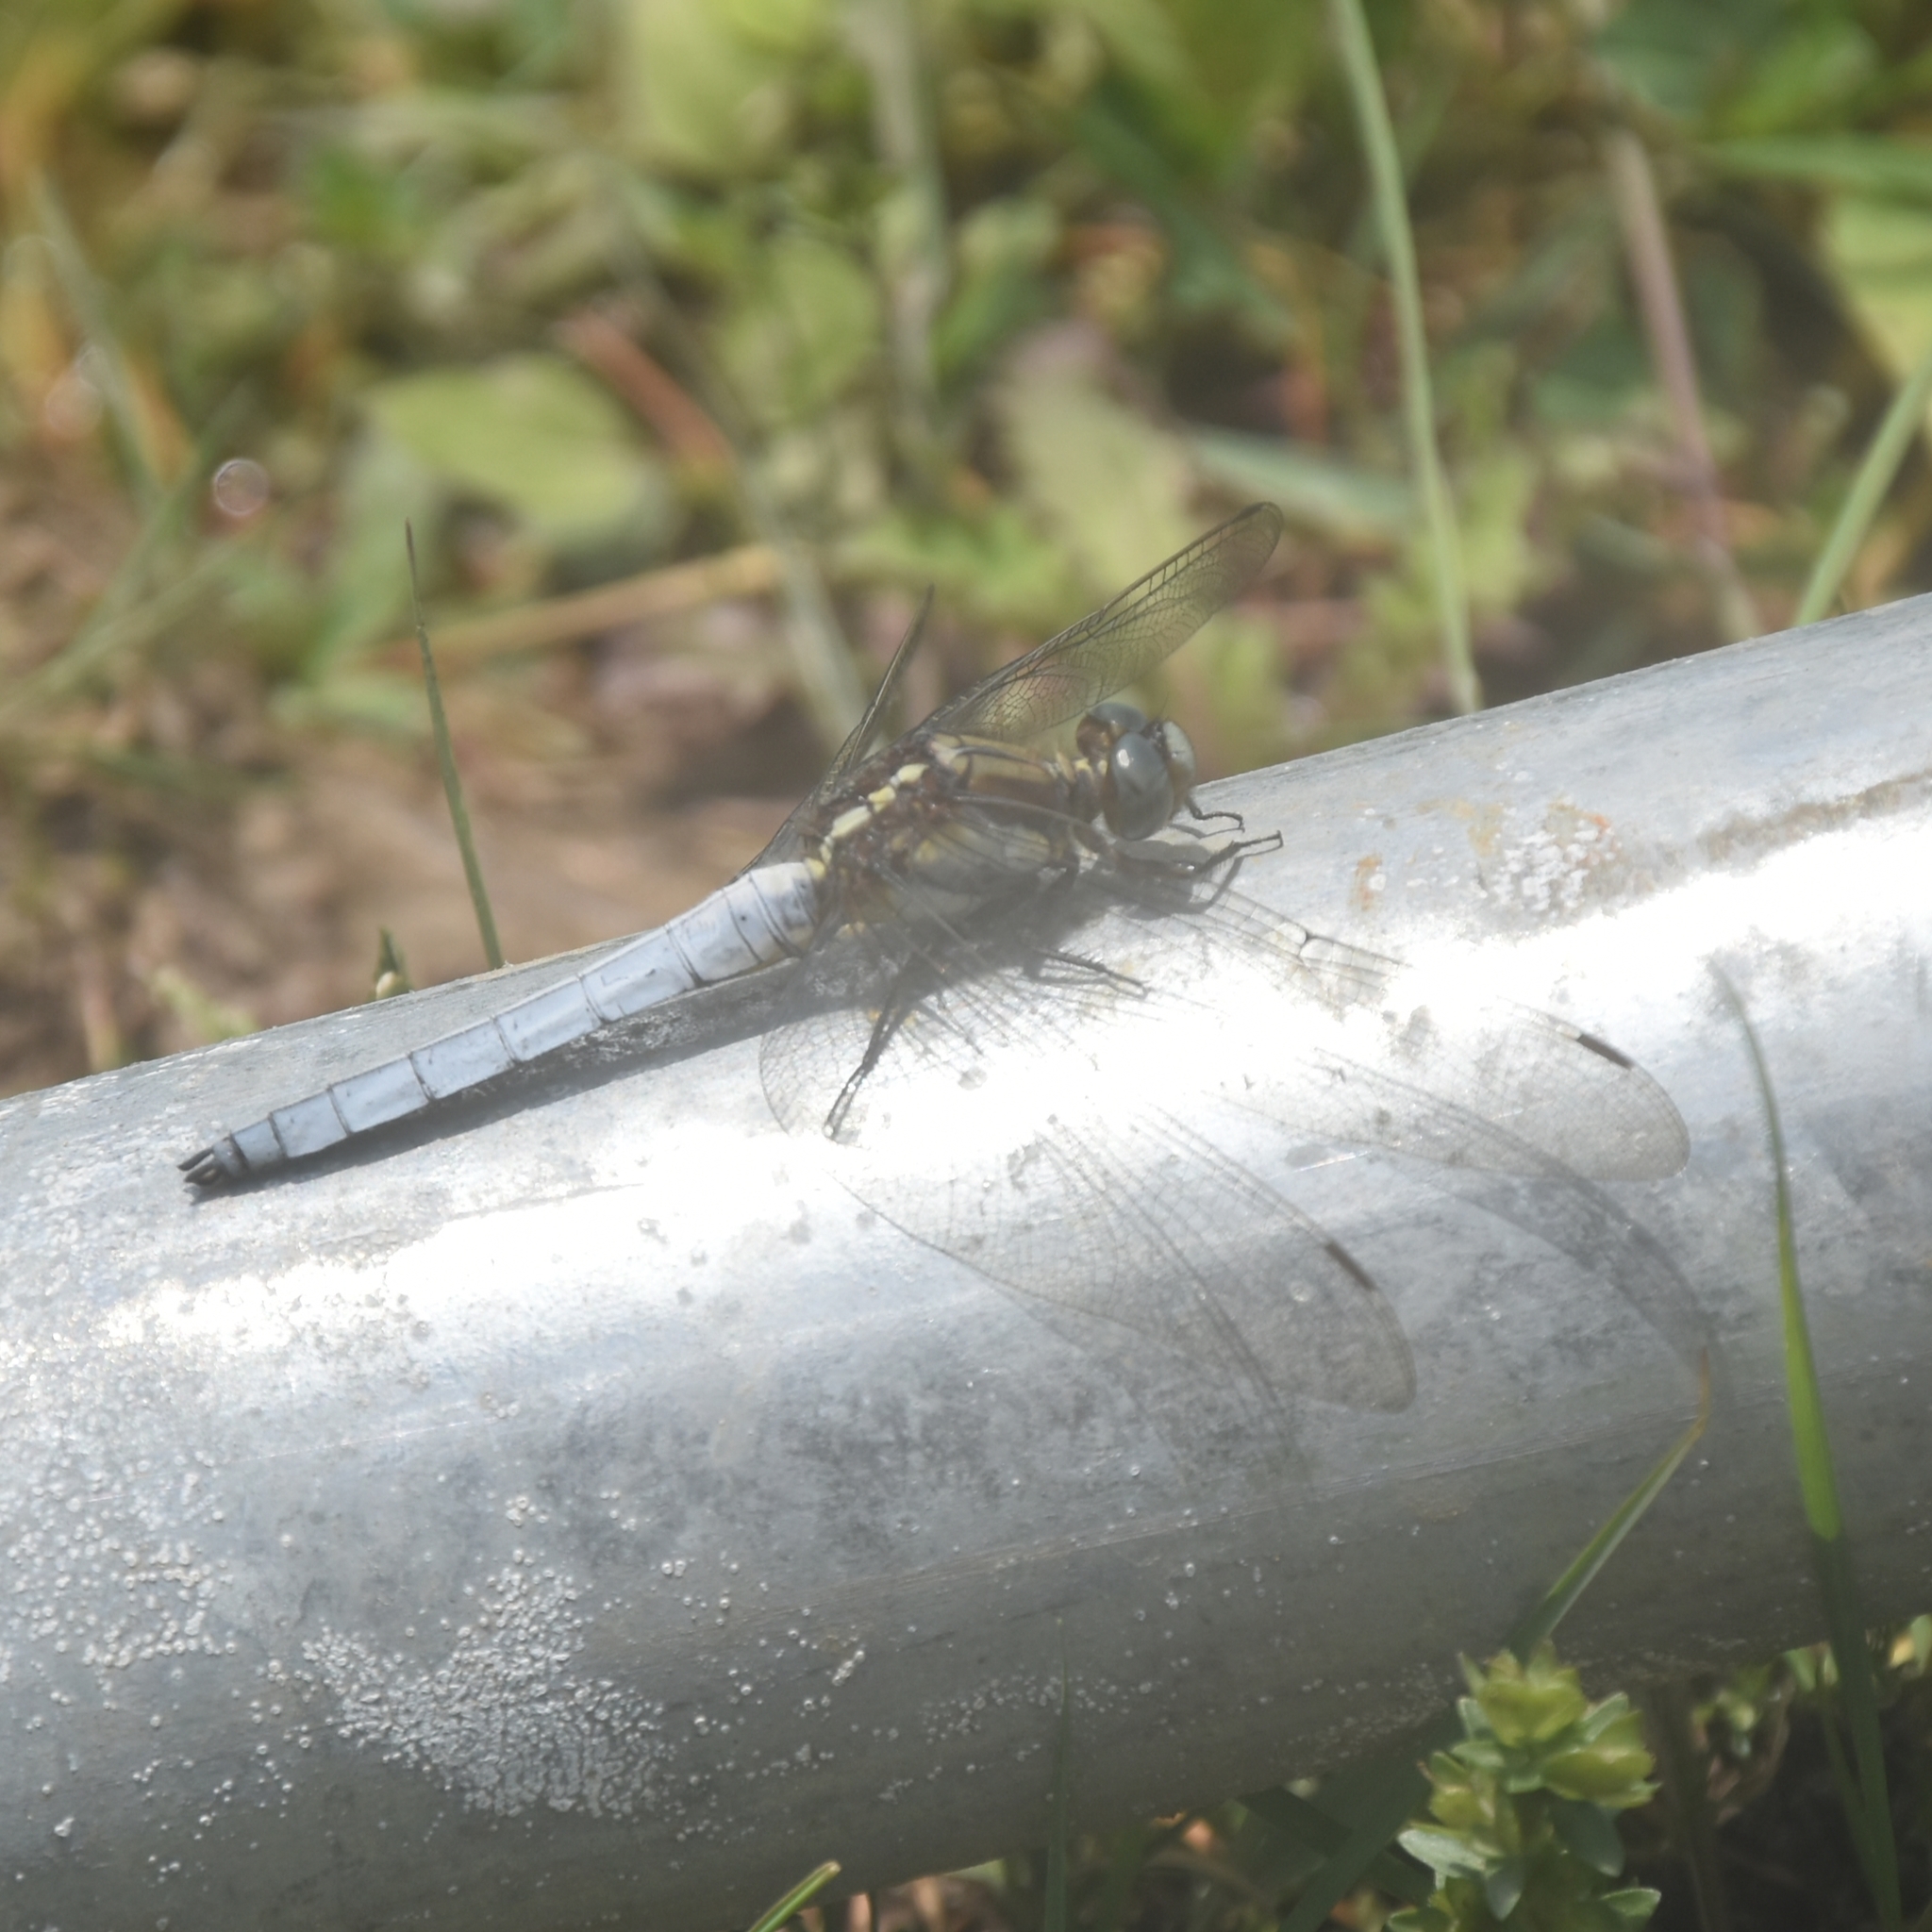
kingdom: Animalia
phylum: Arthropoda
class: Insecta
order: Odonata
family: Libellulidae
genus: Orthetrum
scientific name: Orthetrum internum
